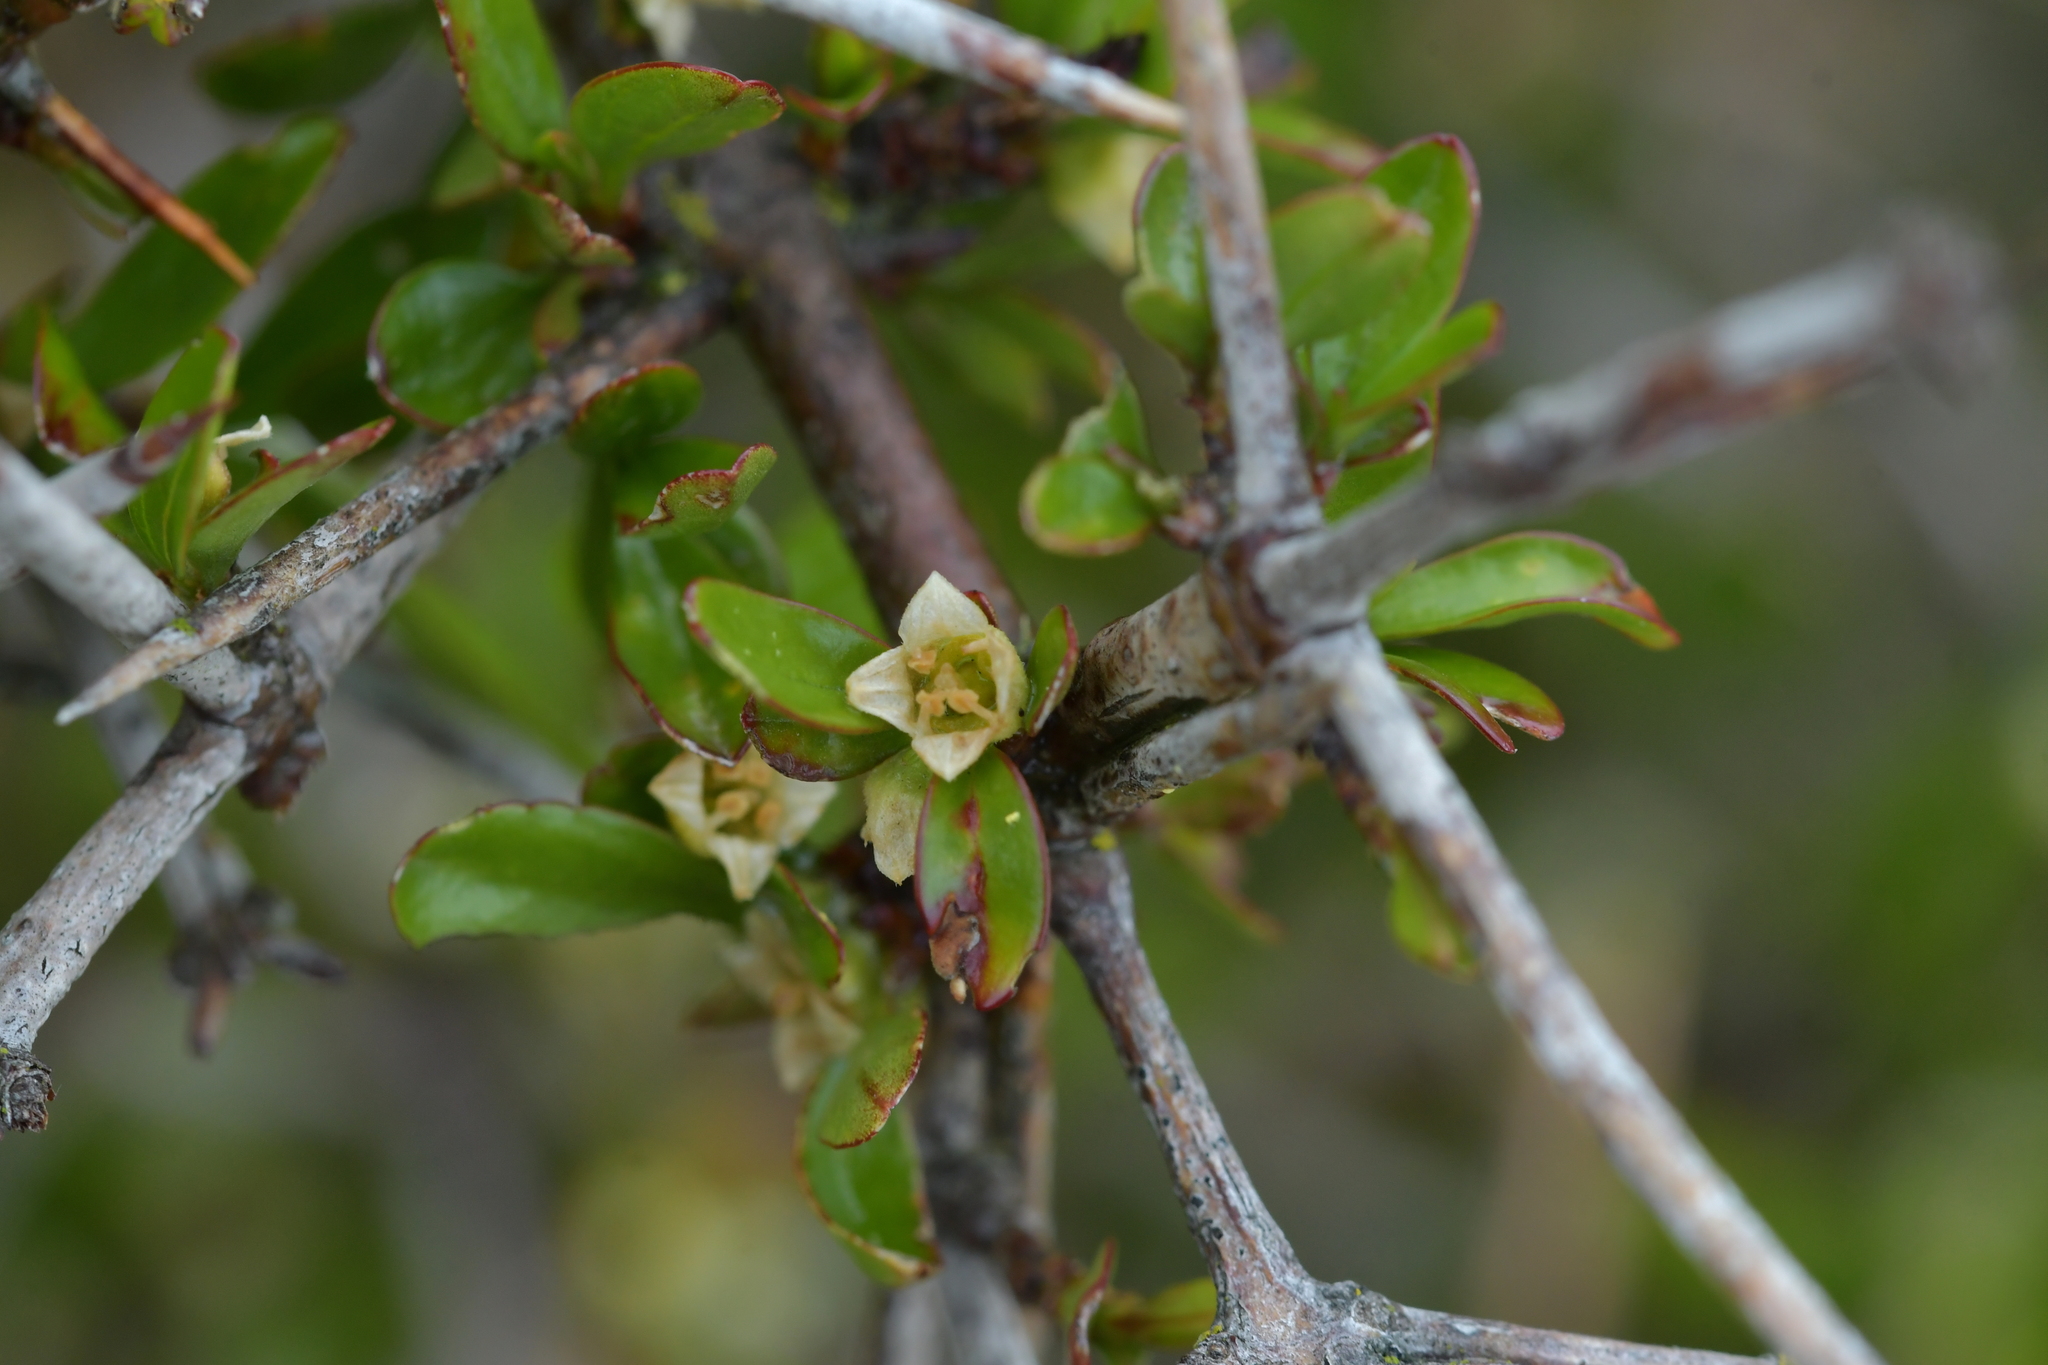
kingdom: Plantae
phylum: Tracheophyta
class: Magnoliopsida
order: Rosales
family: Rhamnaceae
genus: Discaria
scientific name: Discaria toumatou
